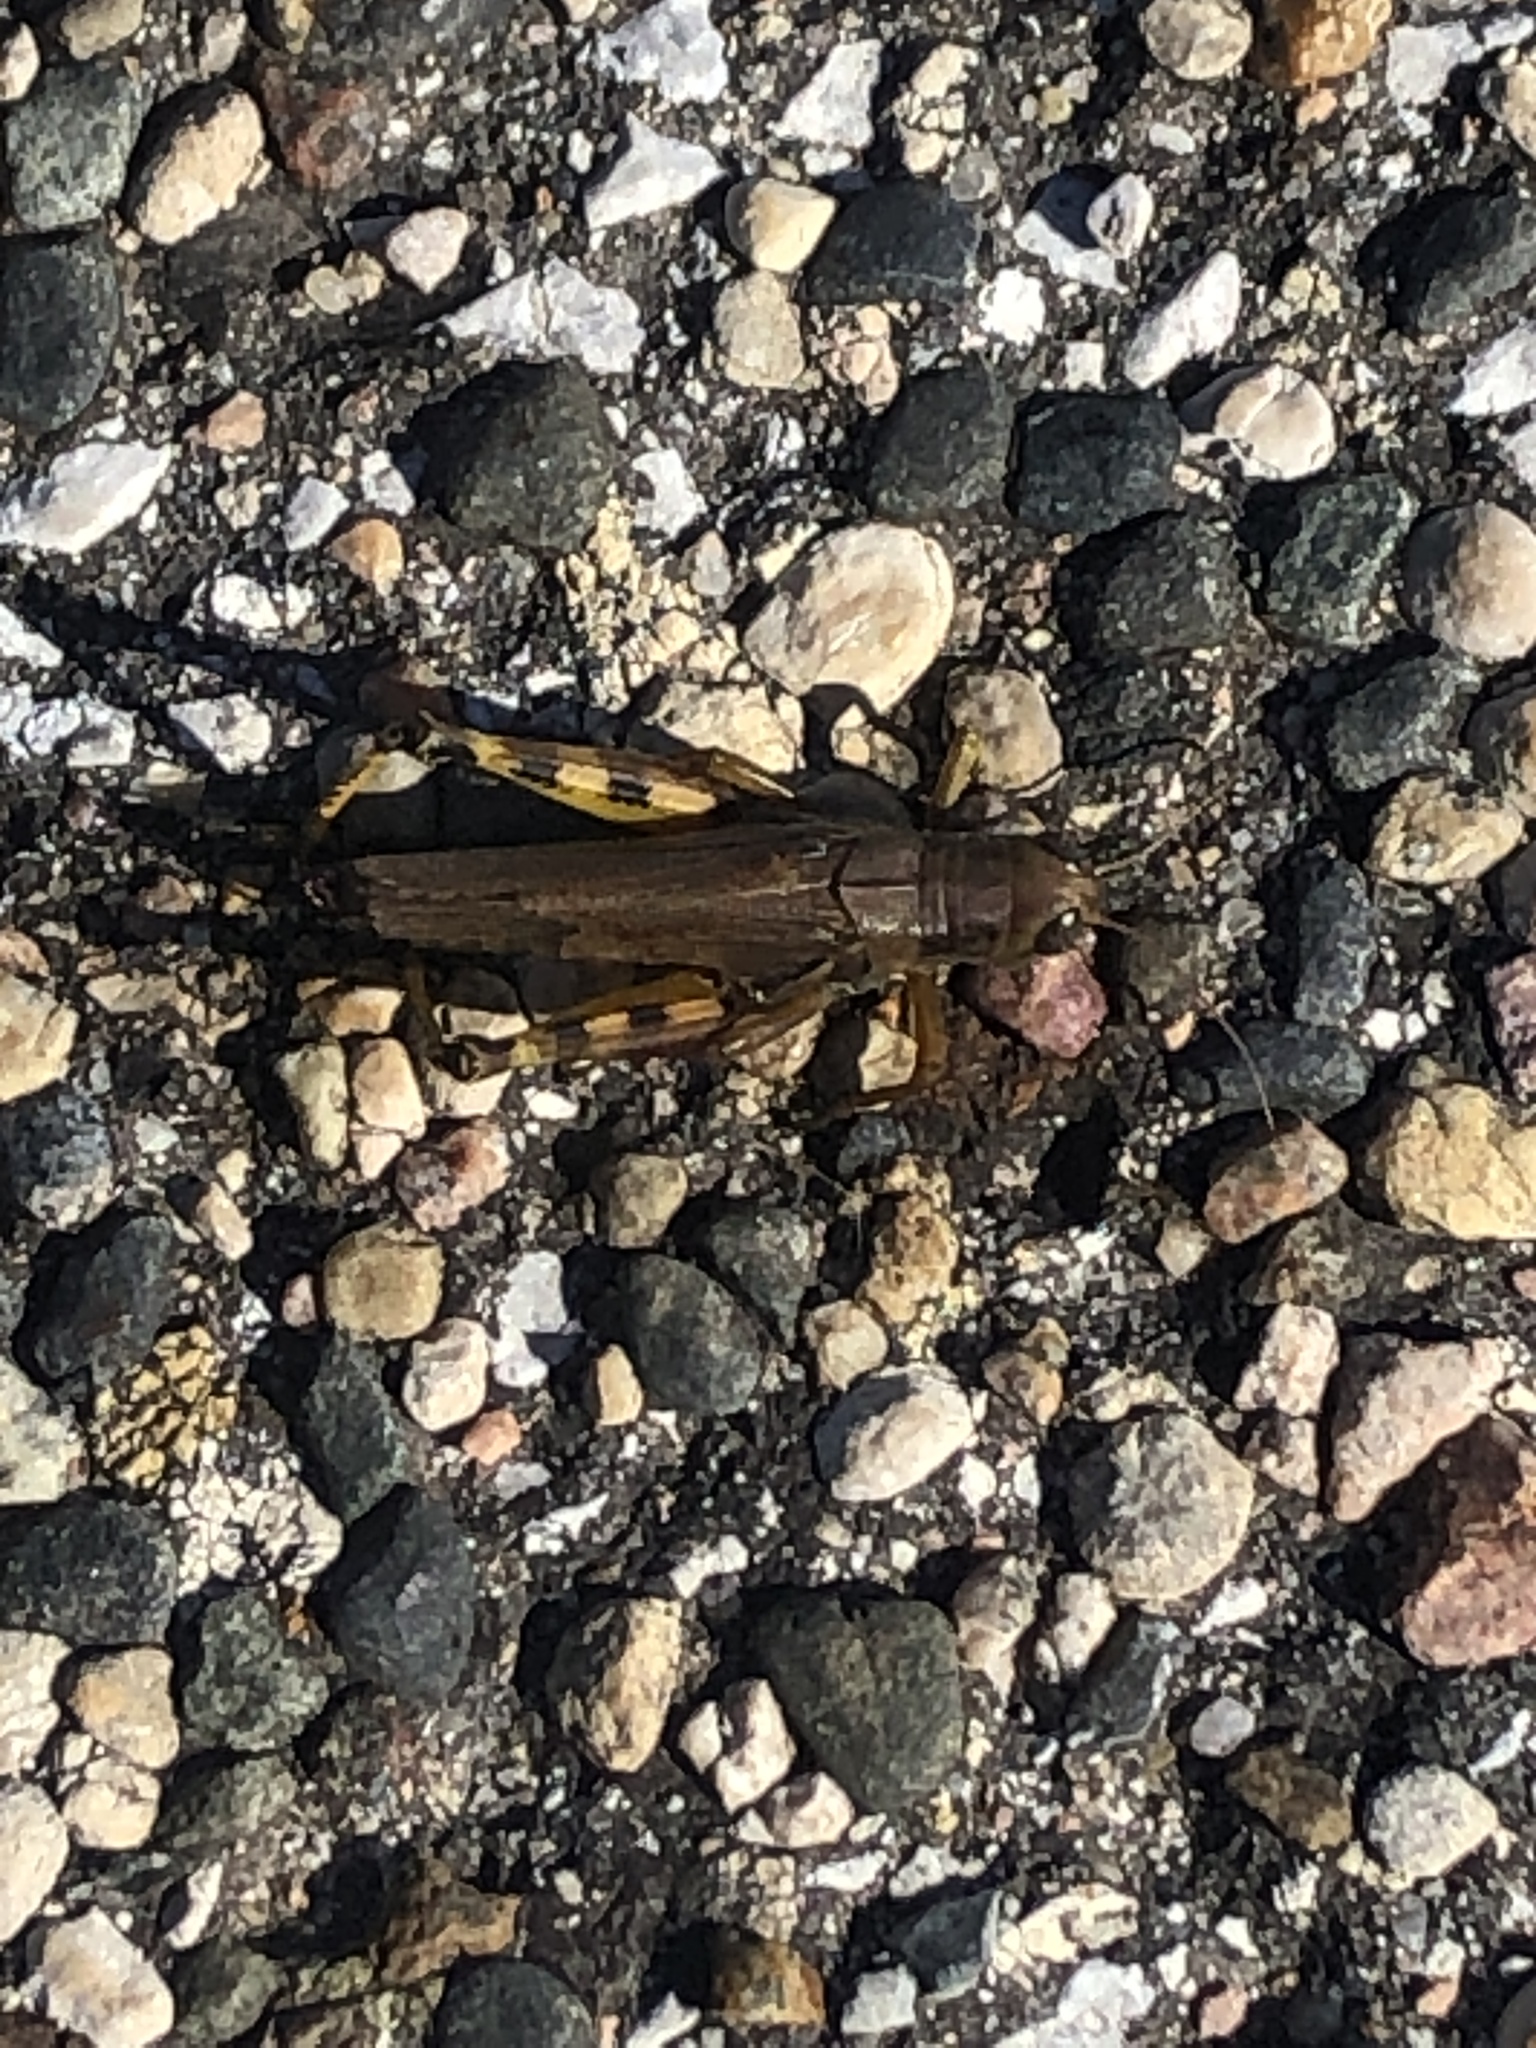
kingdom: Animalia
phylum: Arthropoda
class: Insecta
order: Orthoptera
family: Acrididae
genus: Melanoplus
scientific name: Melanoplus differentialis
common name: Differential grasshopper
